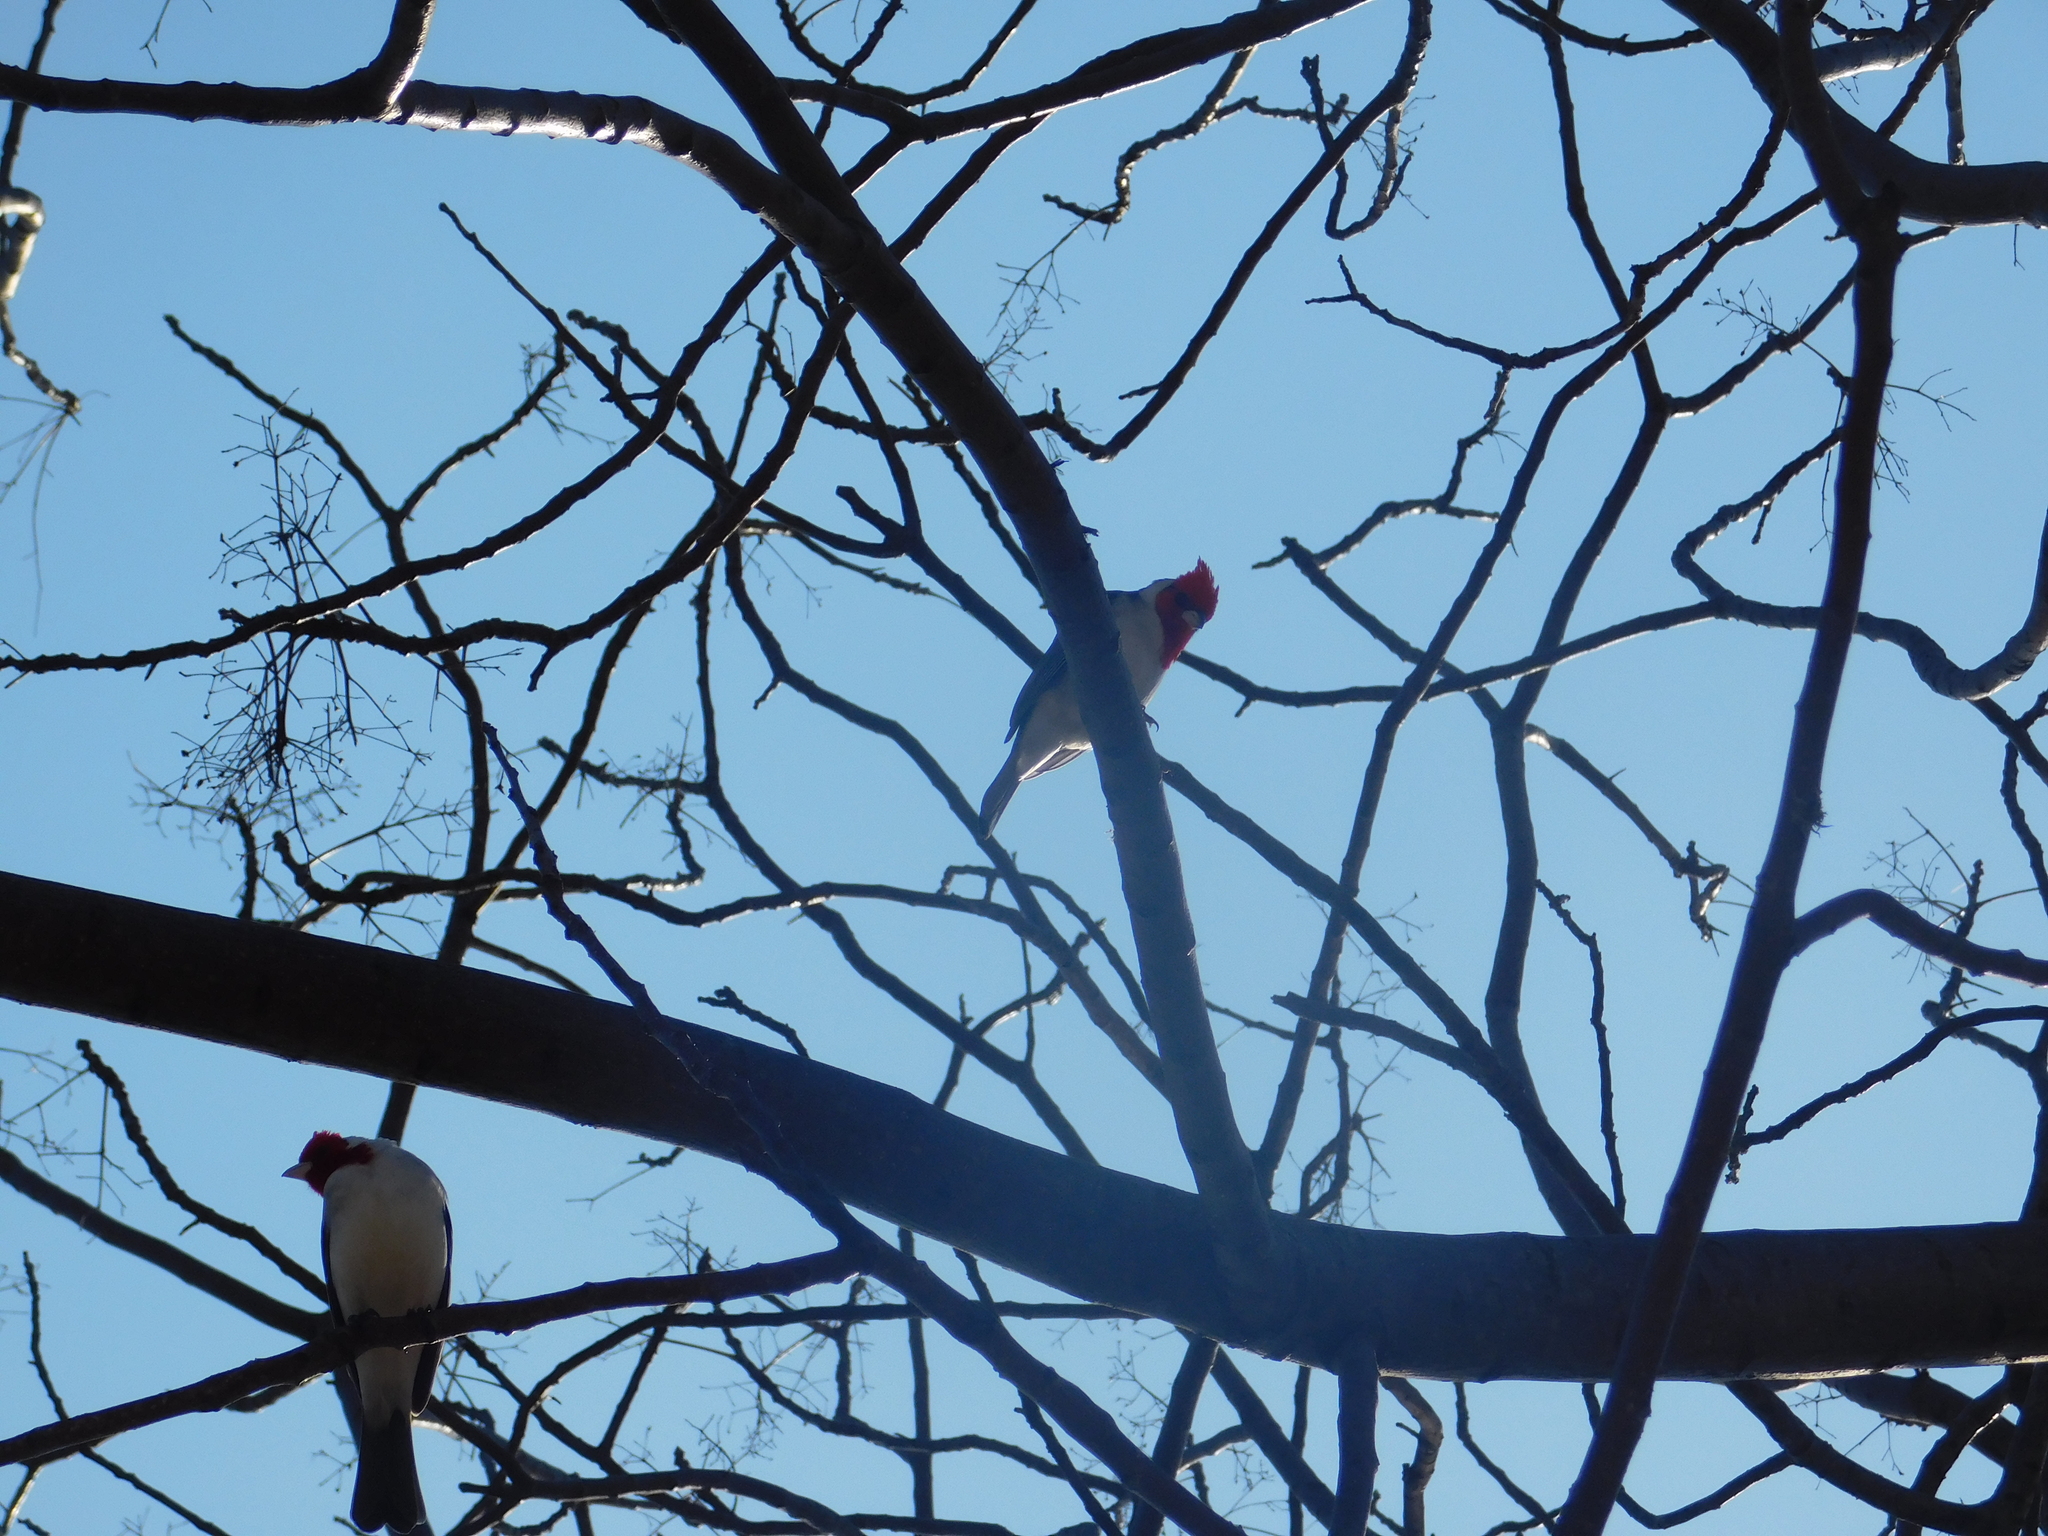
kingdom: Animalia
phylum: Chordata
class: Aves
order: Passeriformes
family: Thraupidae
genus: Paroaria
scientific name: Paroaria coronata
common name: Red-crested cardinal
